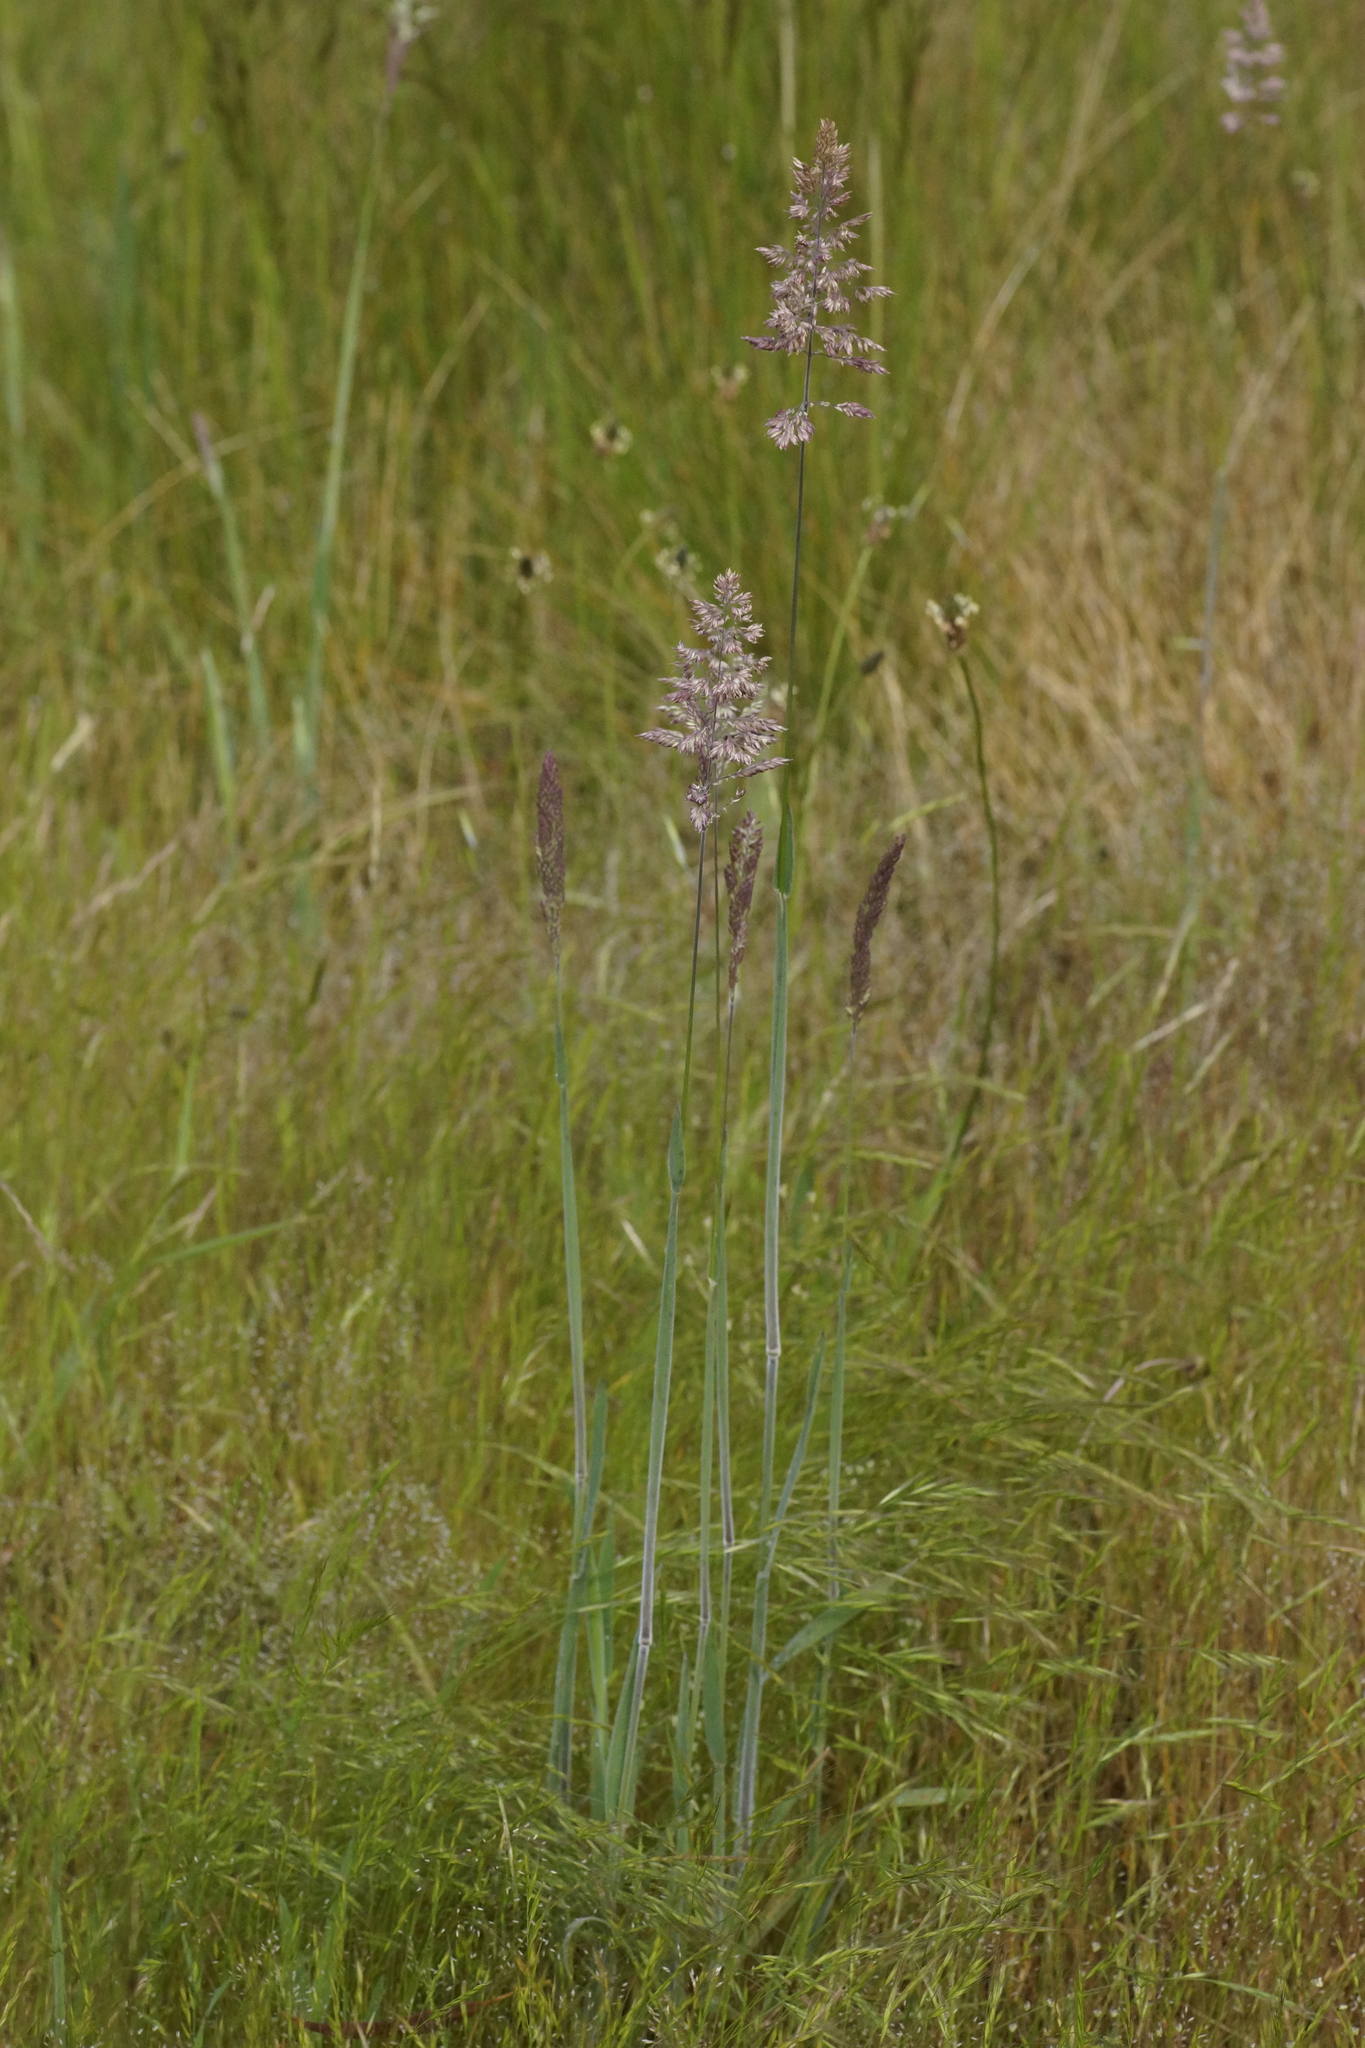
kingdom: Plantae
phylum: Tracheophyta
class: Liliopsida
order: Poales
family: Poaceae
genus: Holcus
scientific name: Holcus lanatus
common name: Yorkshire-fog
